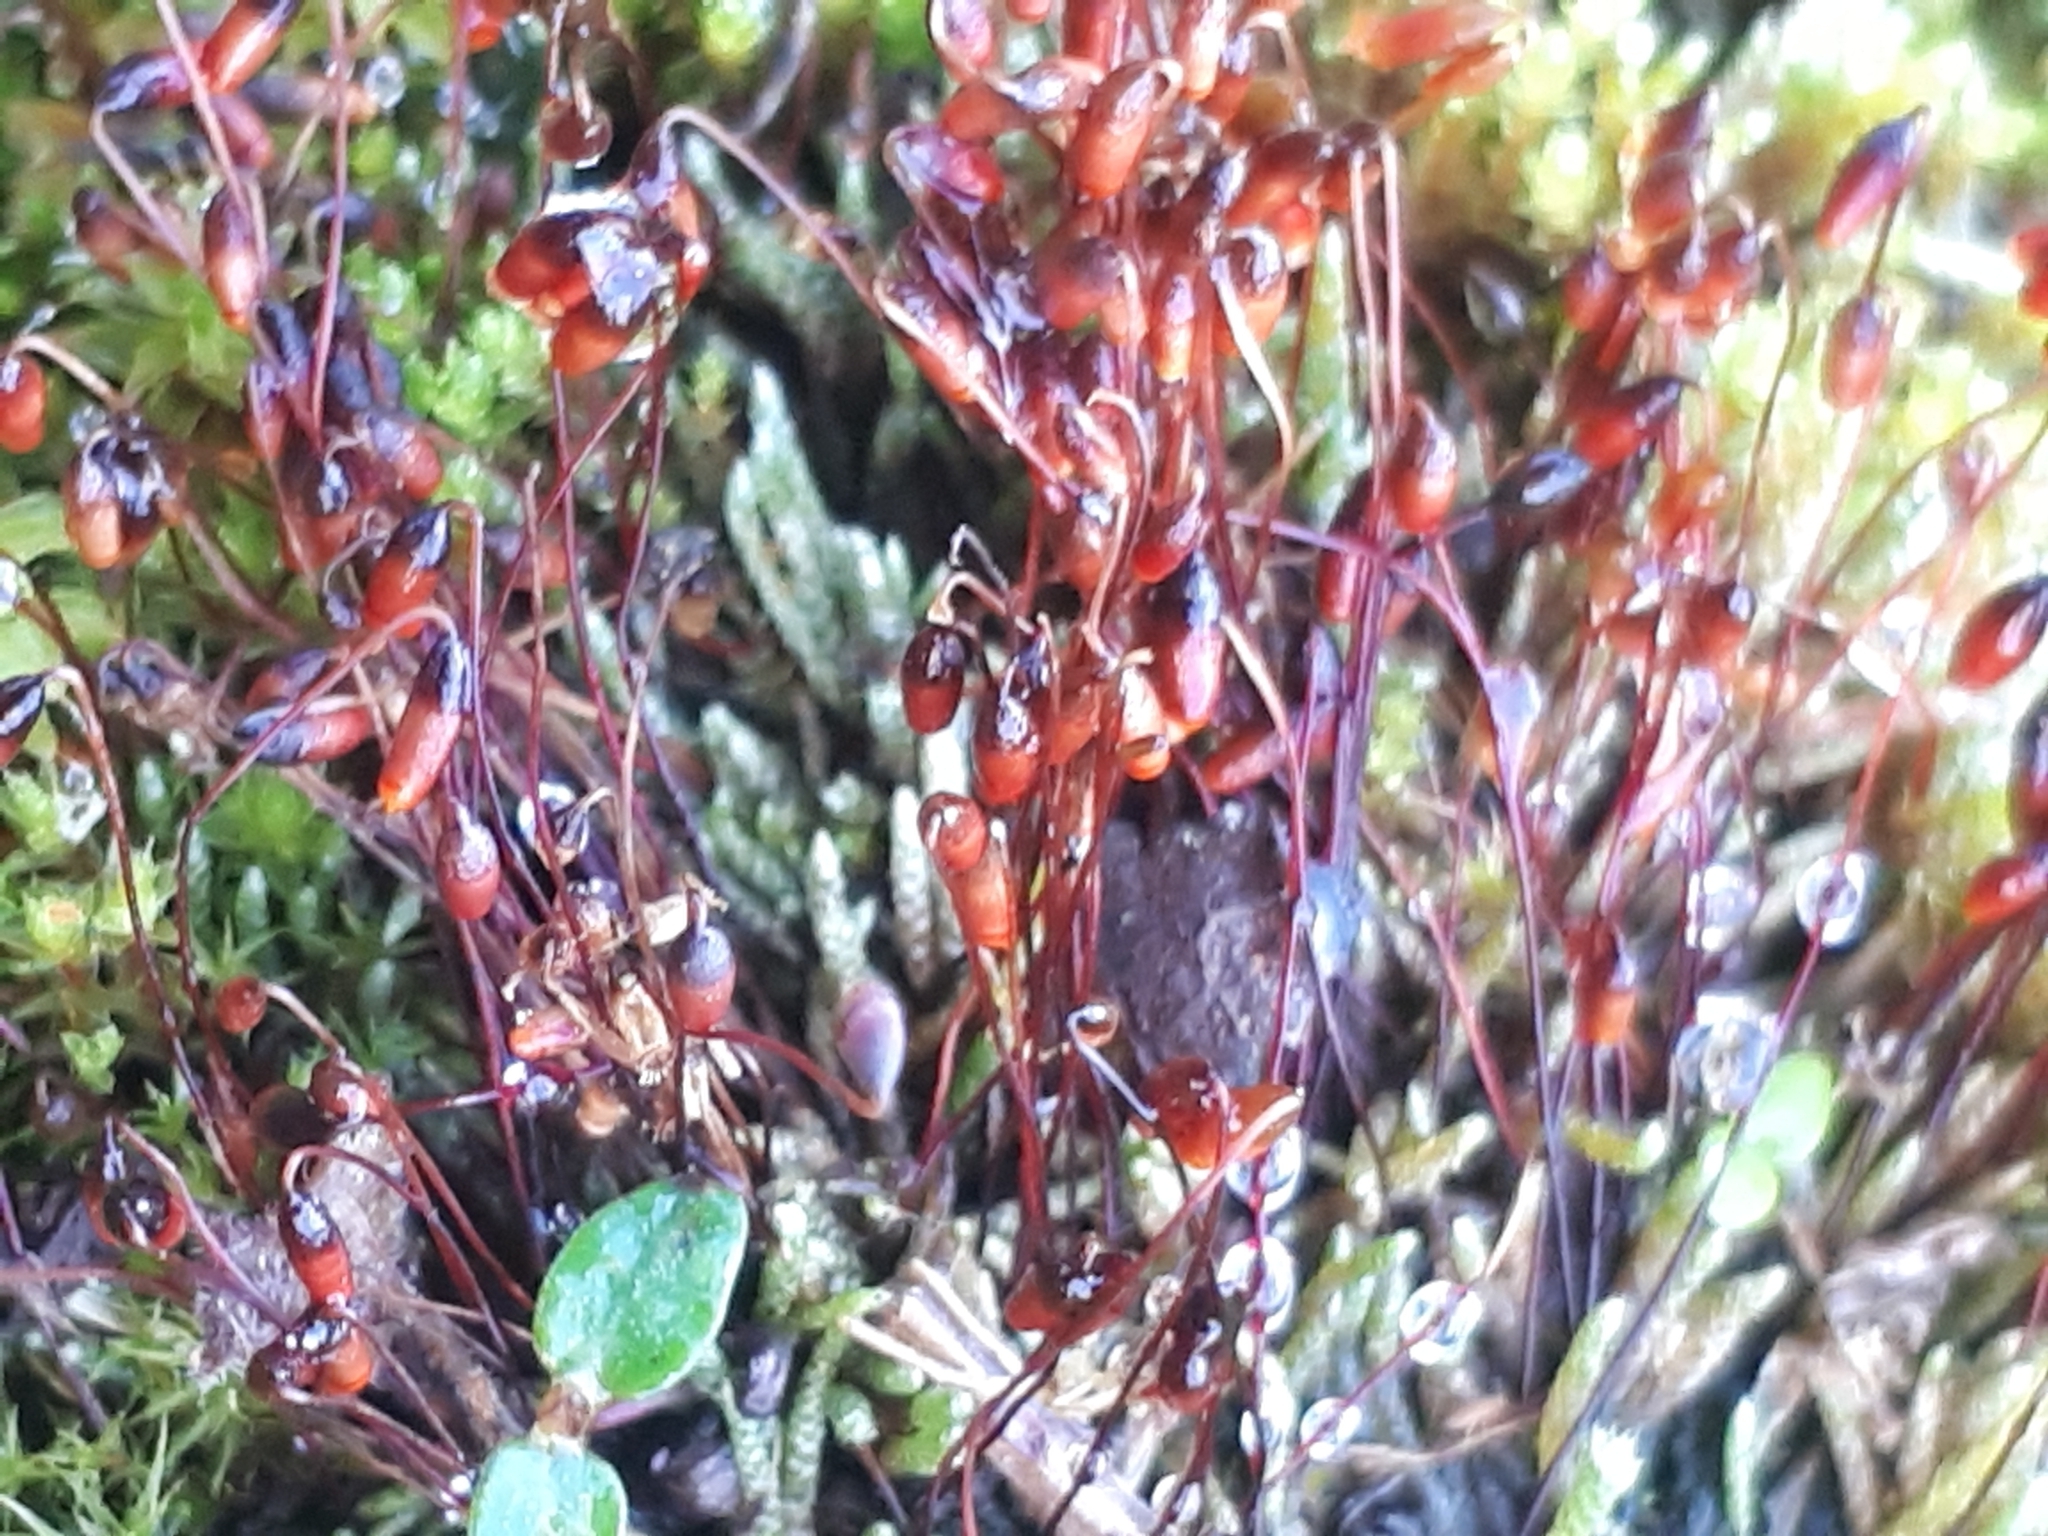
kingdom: Plantae
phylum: Bryophyta
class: Bryopsida
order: Bryales
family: Bryaceae
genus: Bryum
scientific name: Bryum argenteum
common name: Silver-moss
